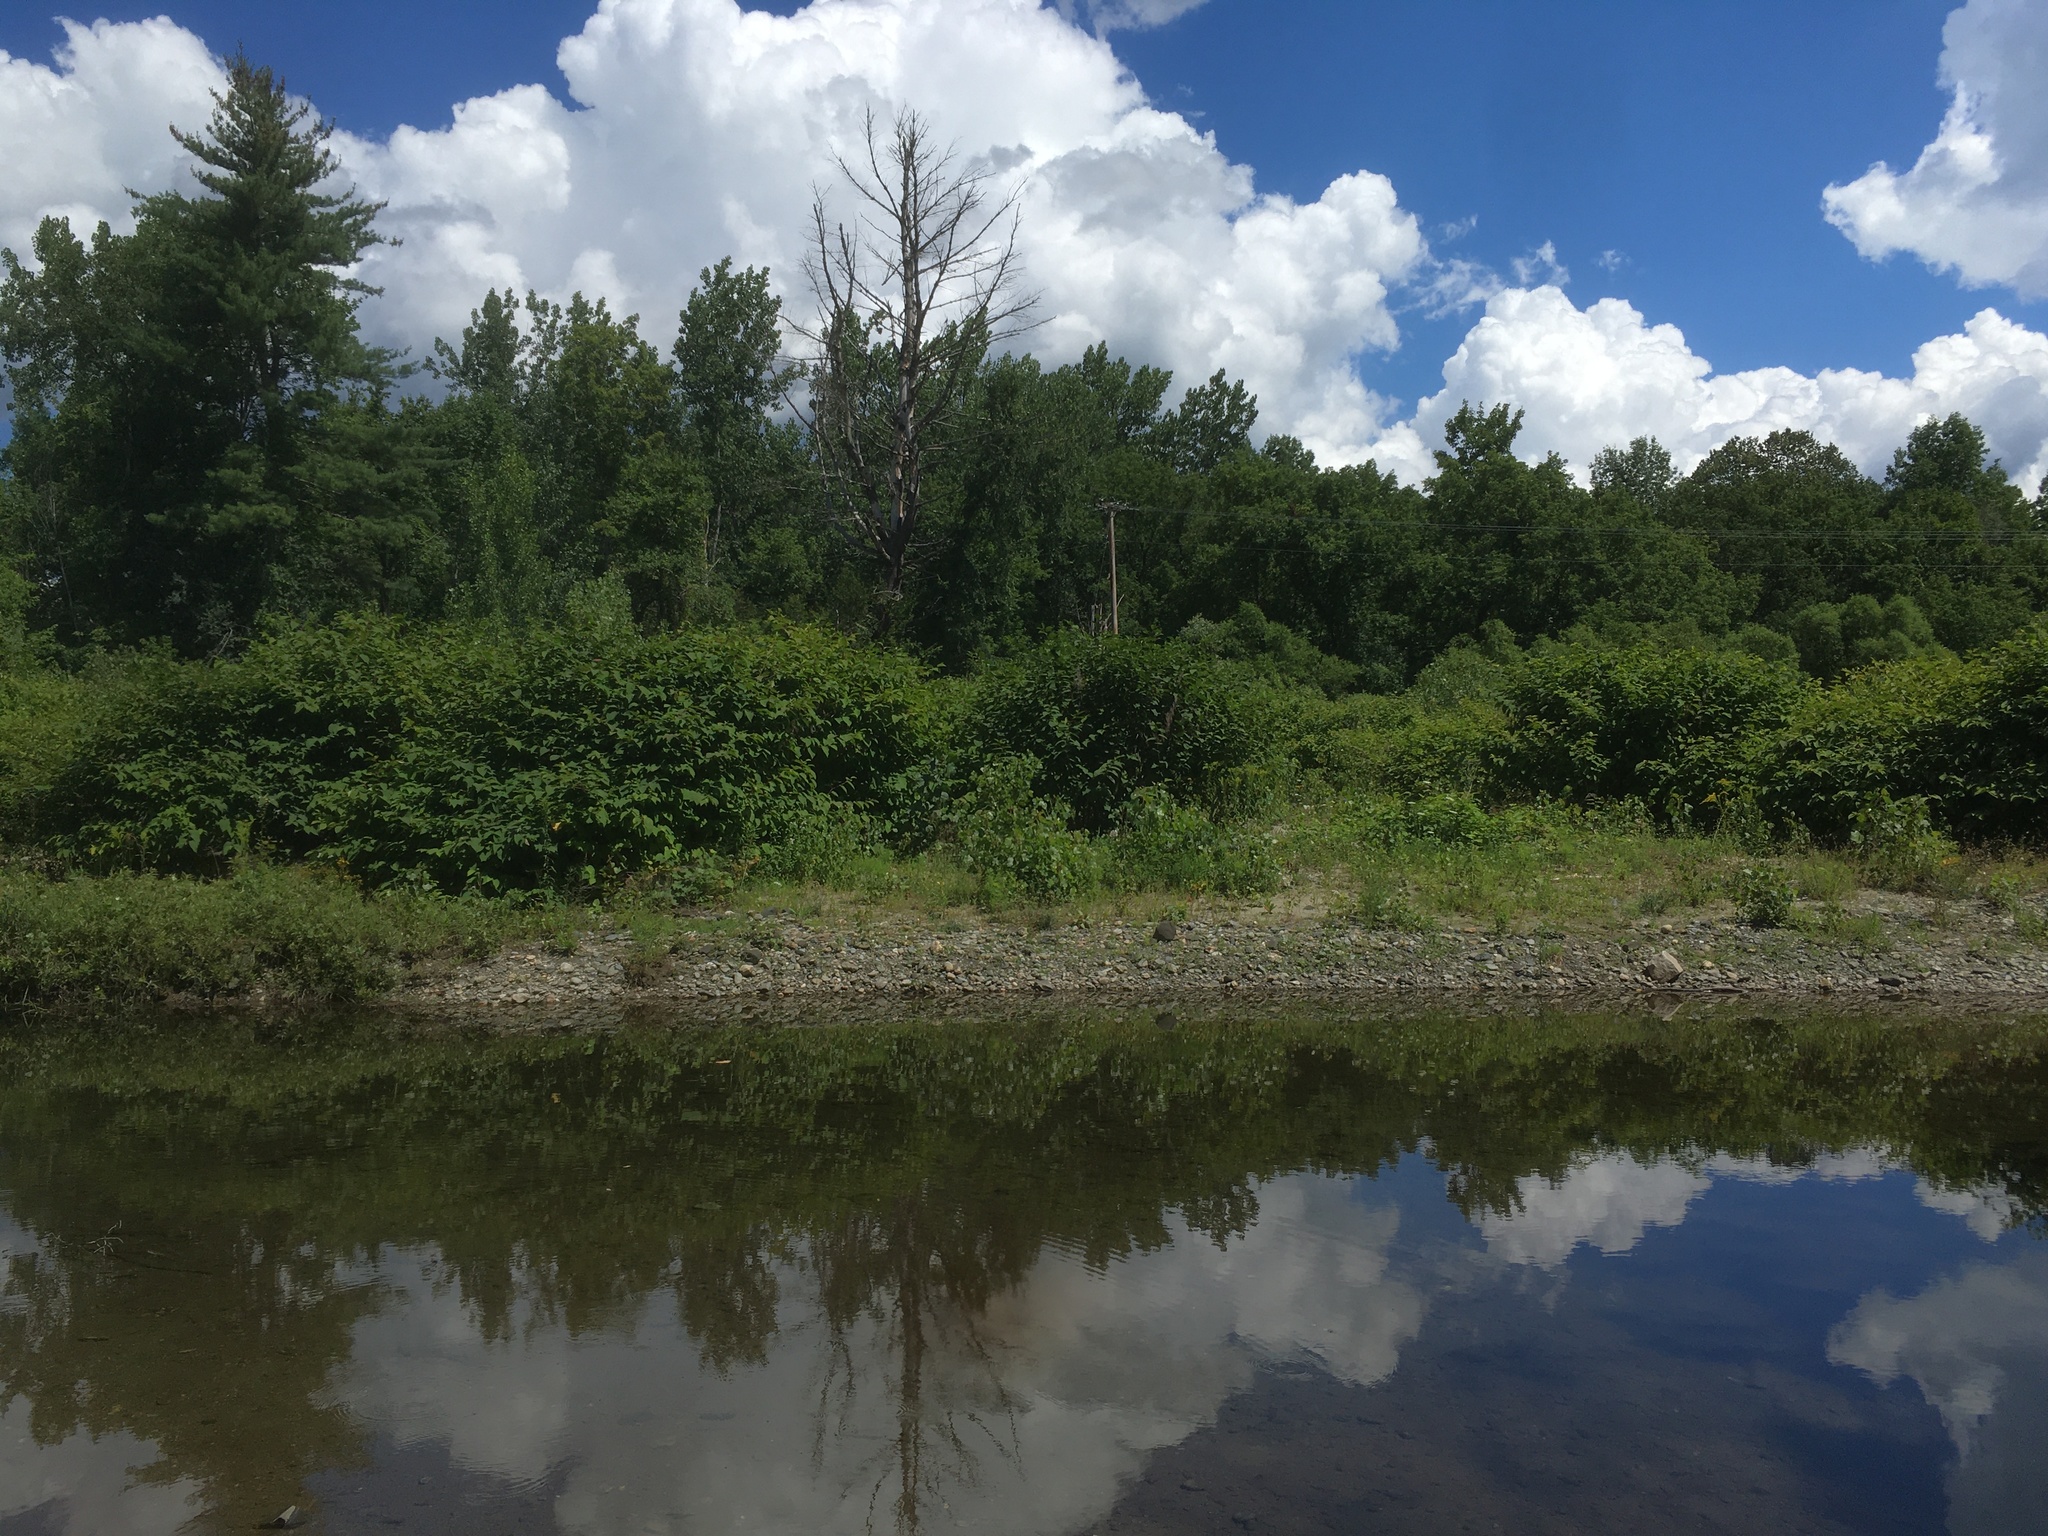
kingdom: Plantae
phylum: Tracheophyta
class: Magnoliopsida
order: Caryophyllales
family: Polygonaceae
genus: Reynoutria
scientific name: Reynoutria japonica
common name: Japanese knotweed
